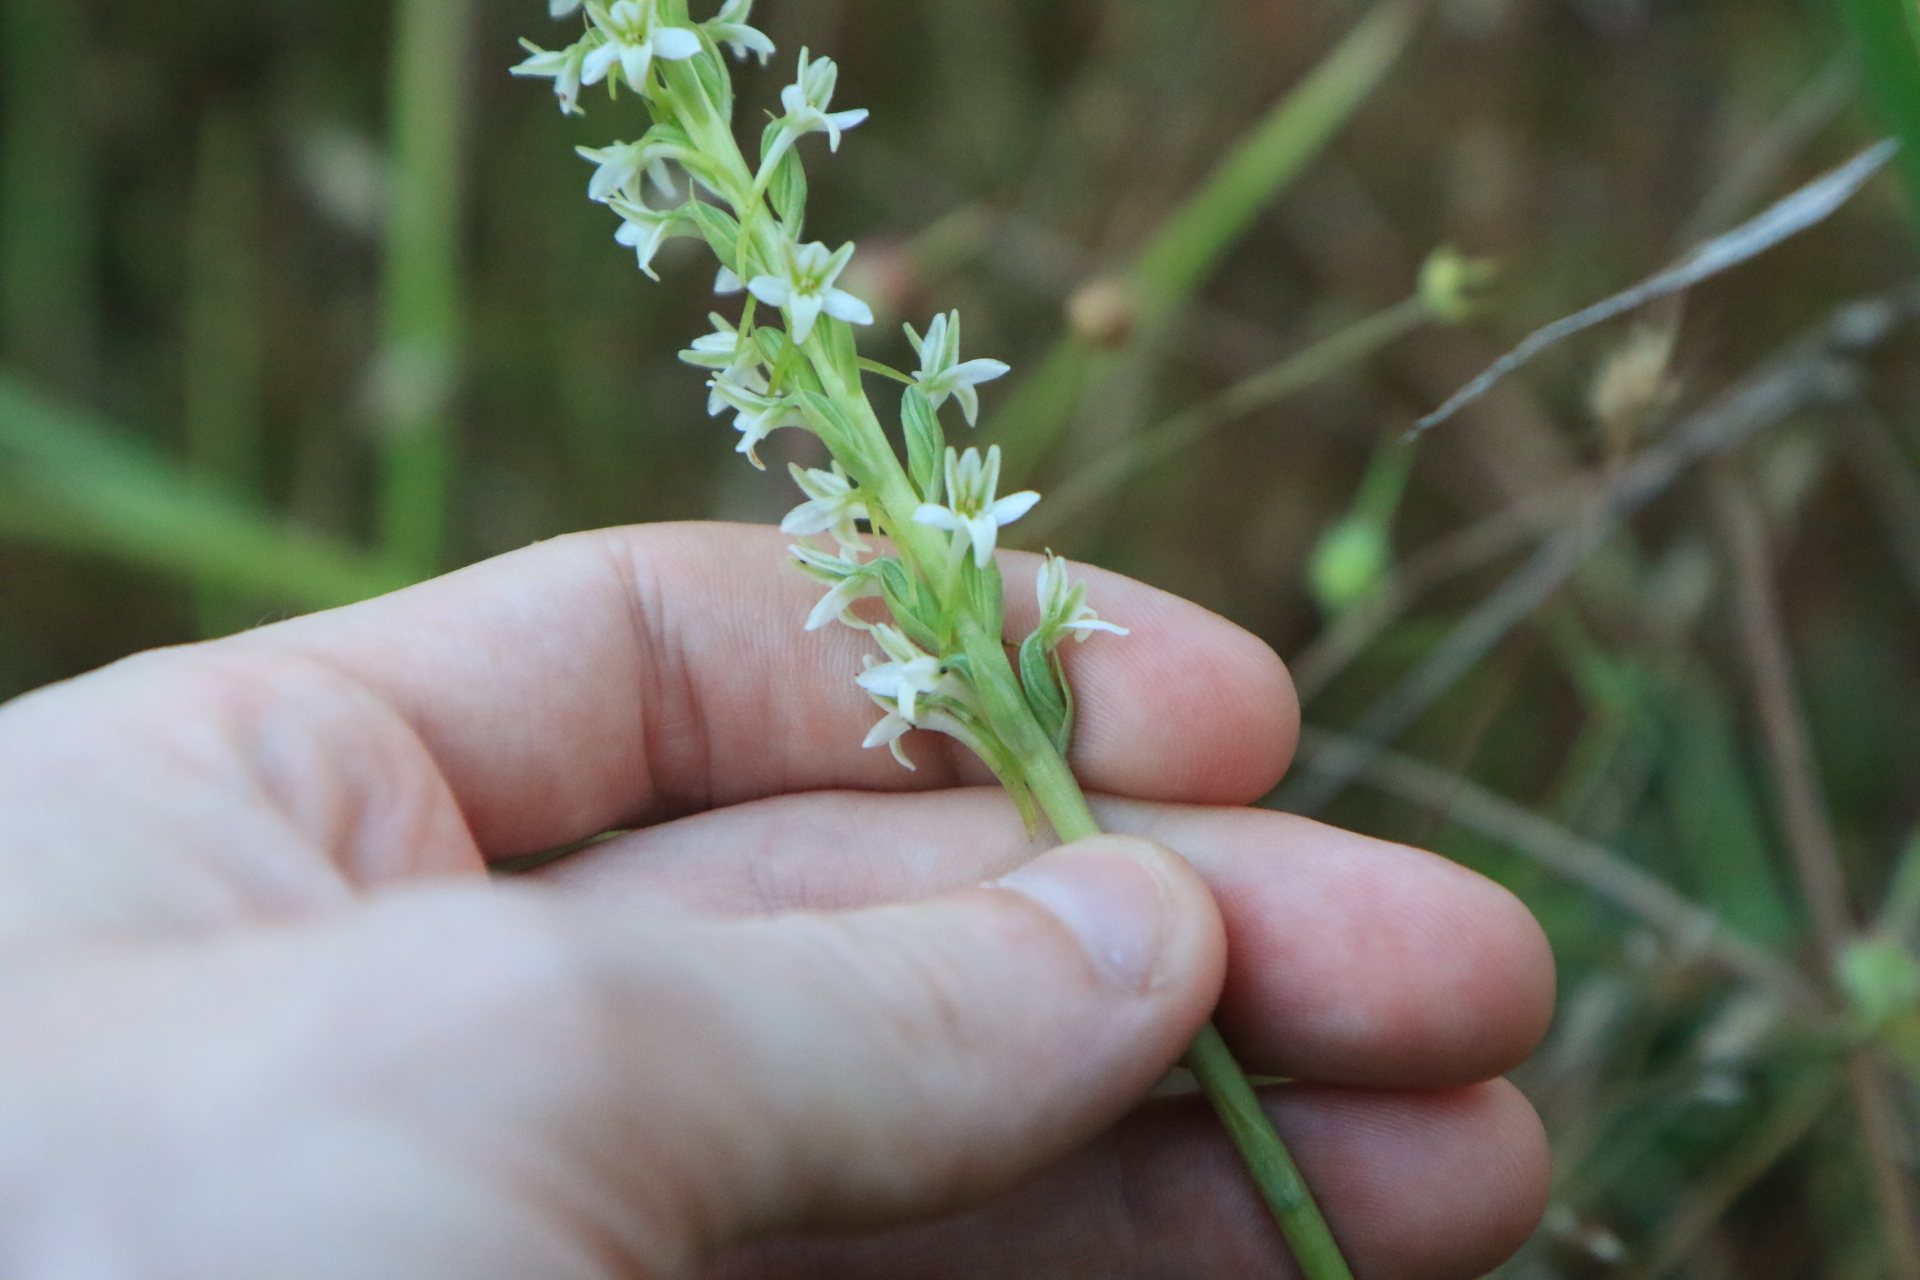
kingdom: Plantae
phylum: Tracheophyta
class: Liliopsida
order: Asparagales
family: Orchidaceae
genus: Platanthera
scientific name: Platanthera elegans
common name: Coast piperia
